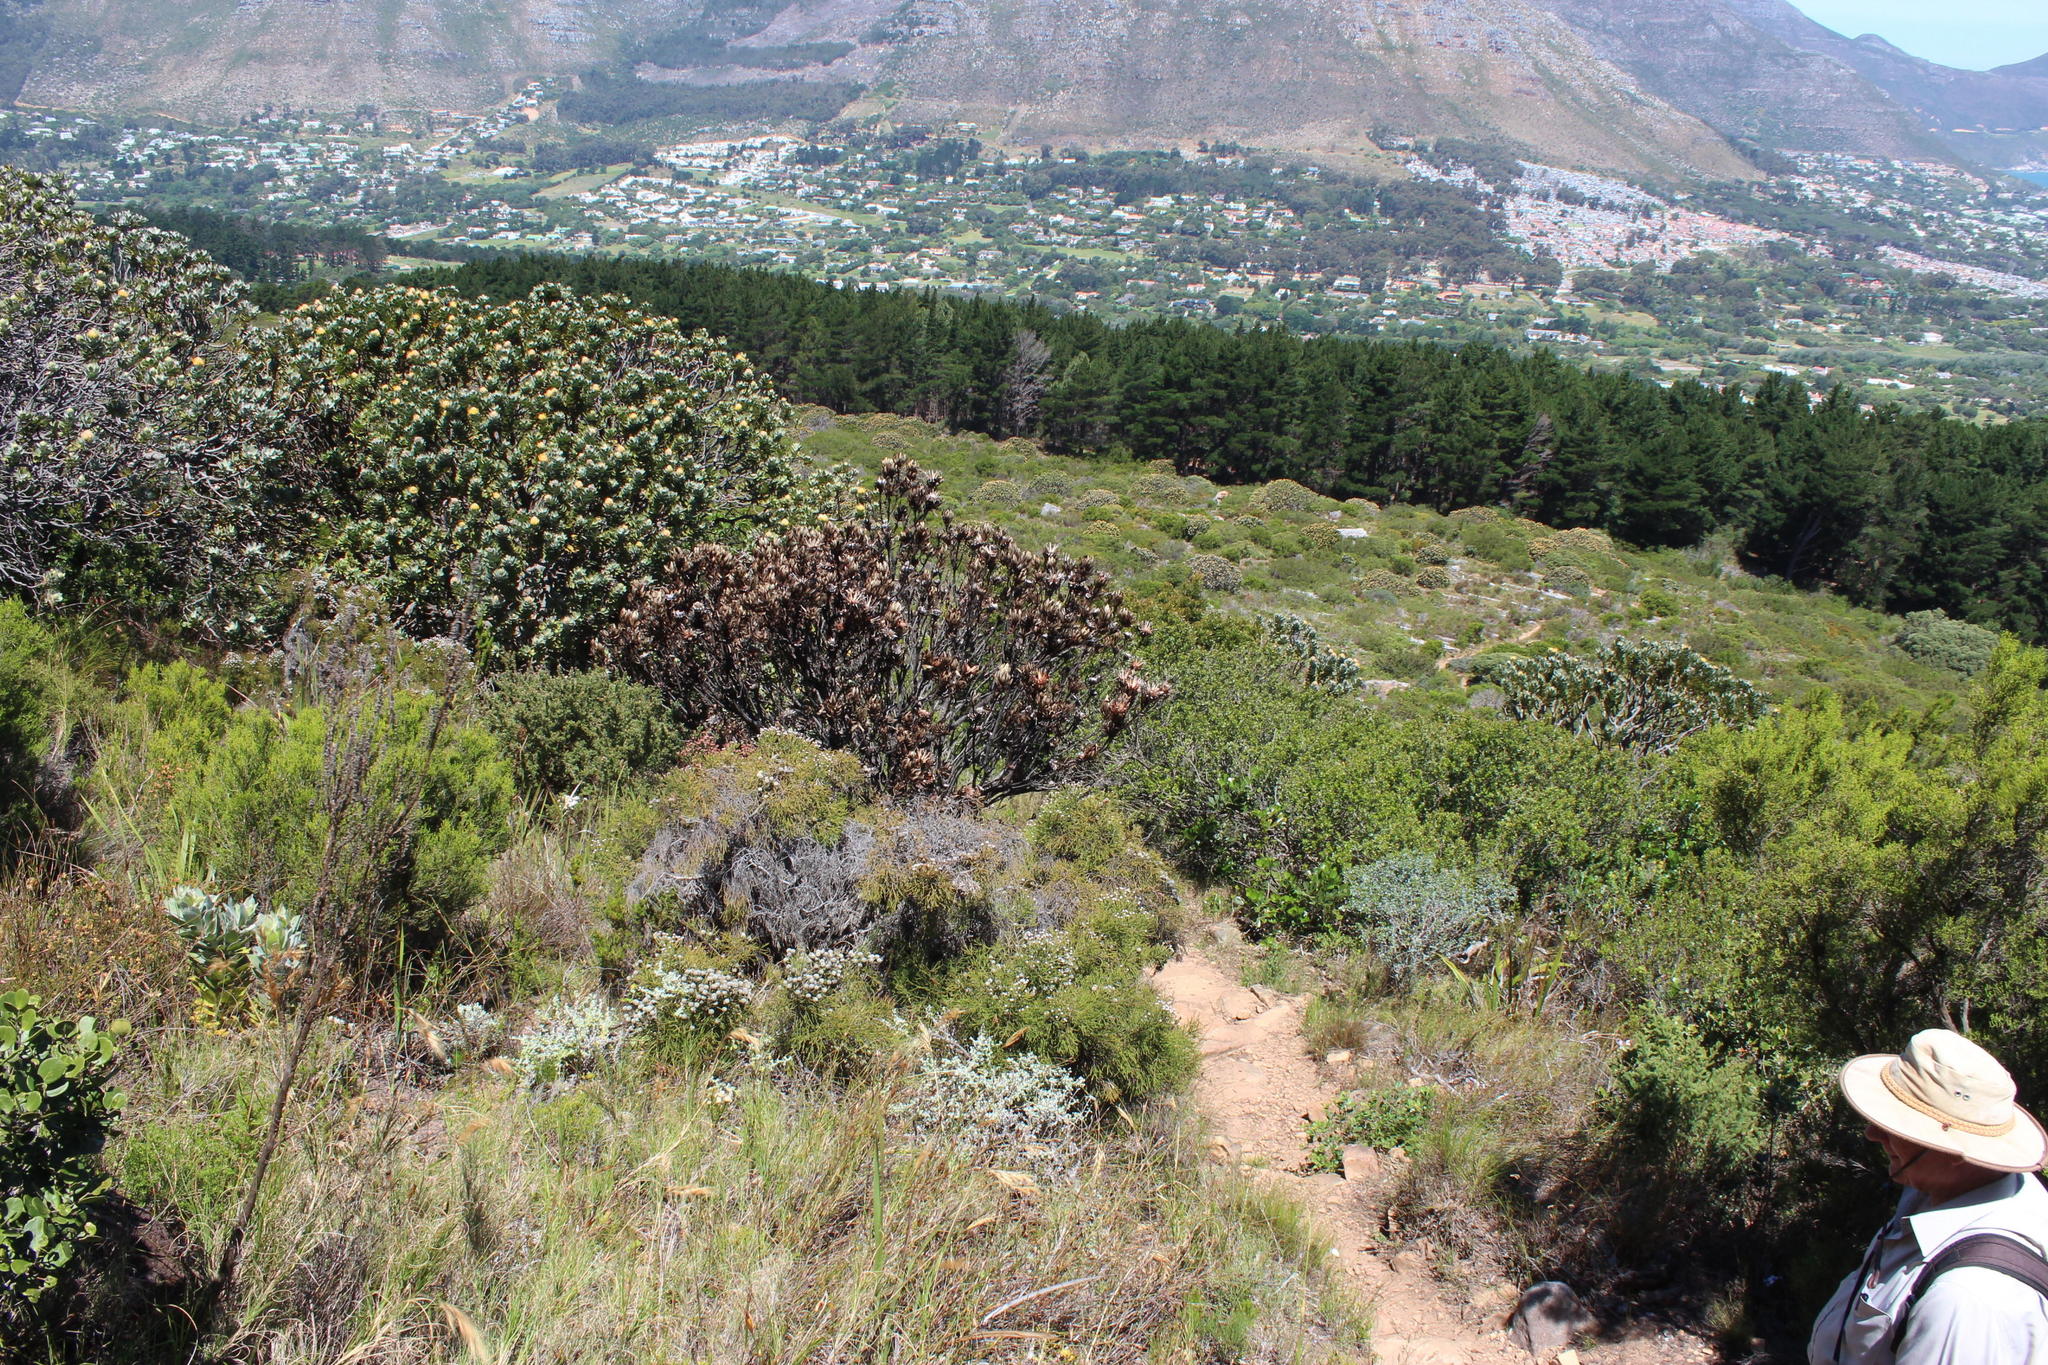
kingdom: Plantae
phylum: Tracheophyta
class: Magnoliopsida
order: Proteales
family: Proteaceae
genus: Protea
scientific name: Protea lepidocarpodendron
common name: Black-bearded protea
